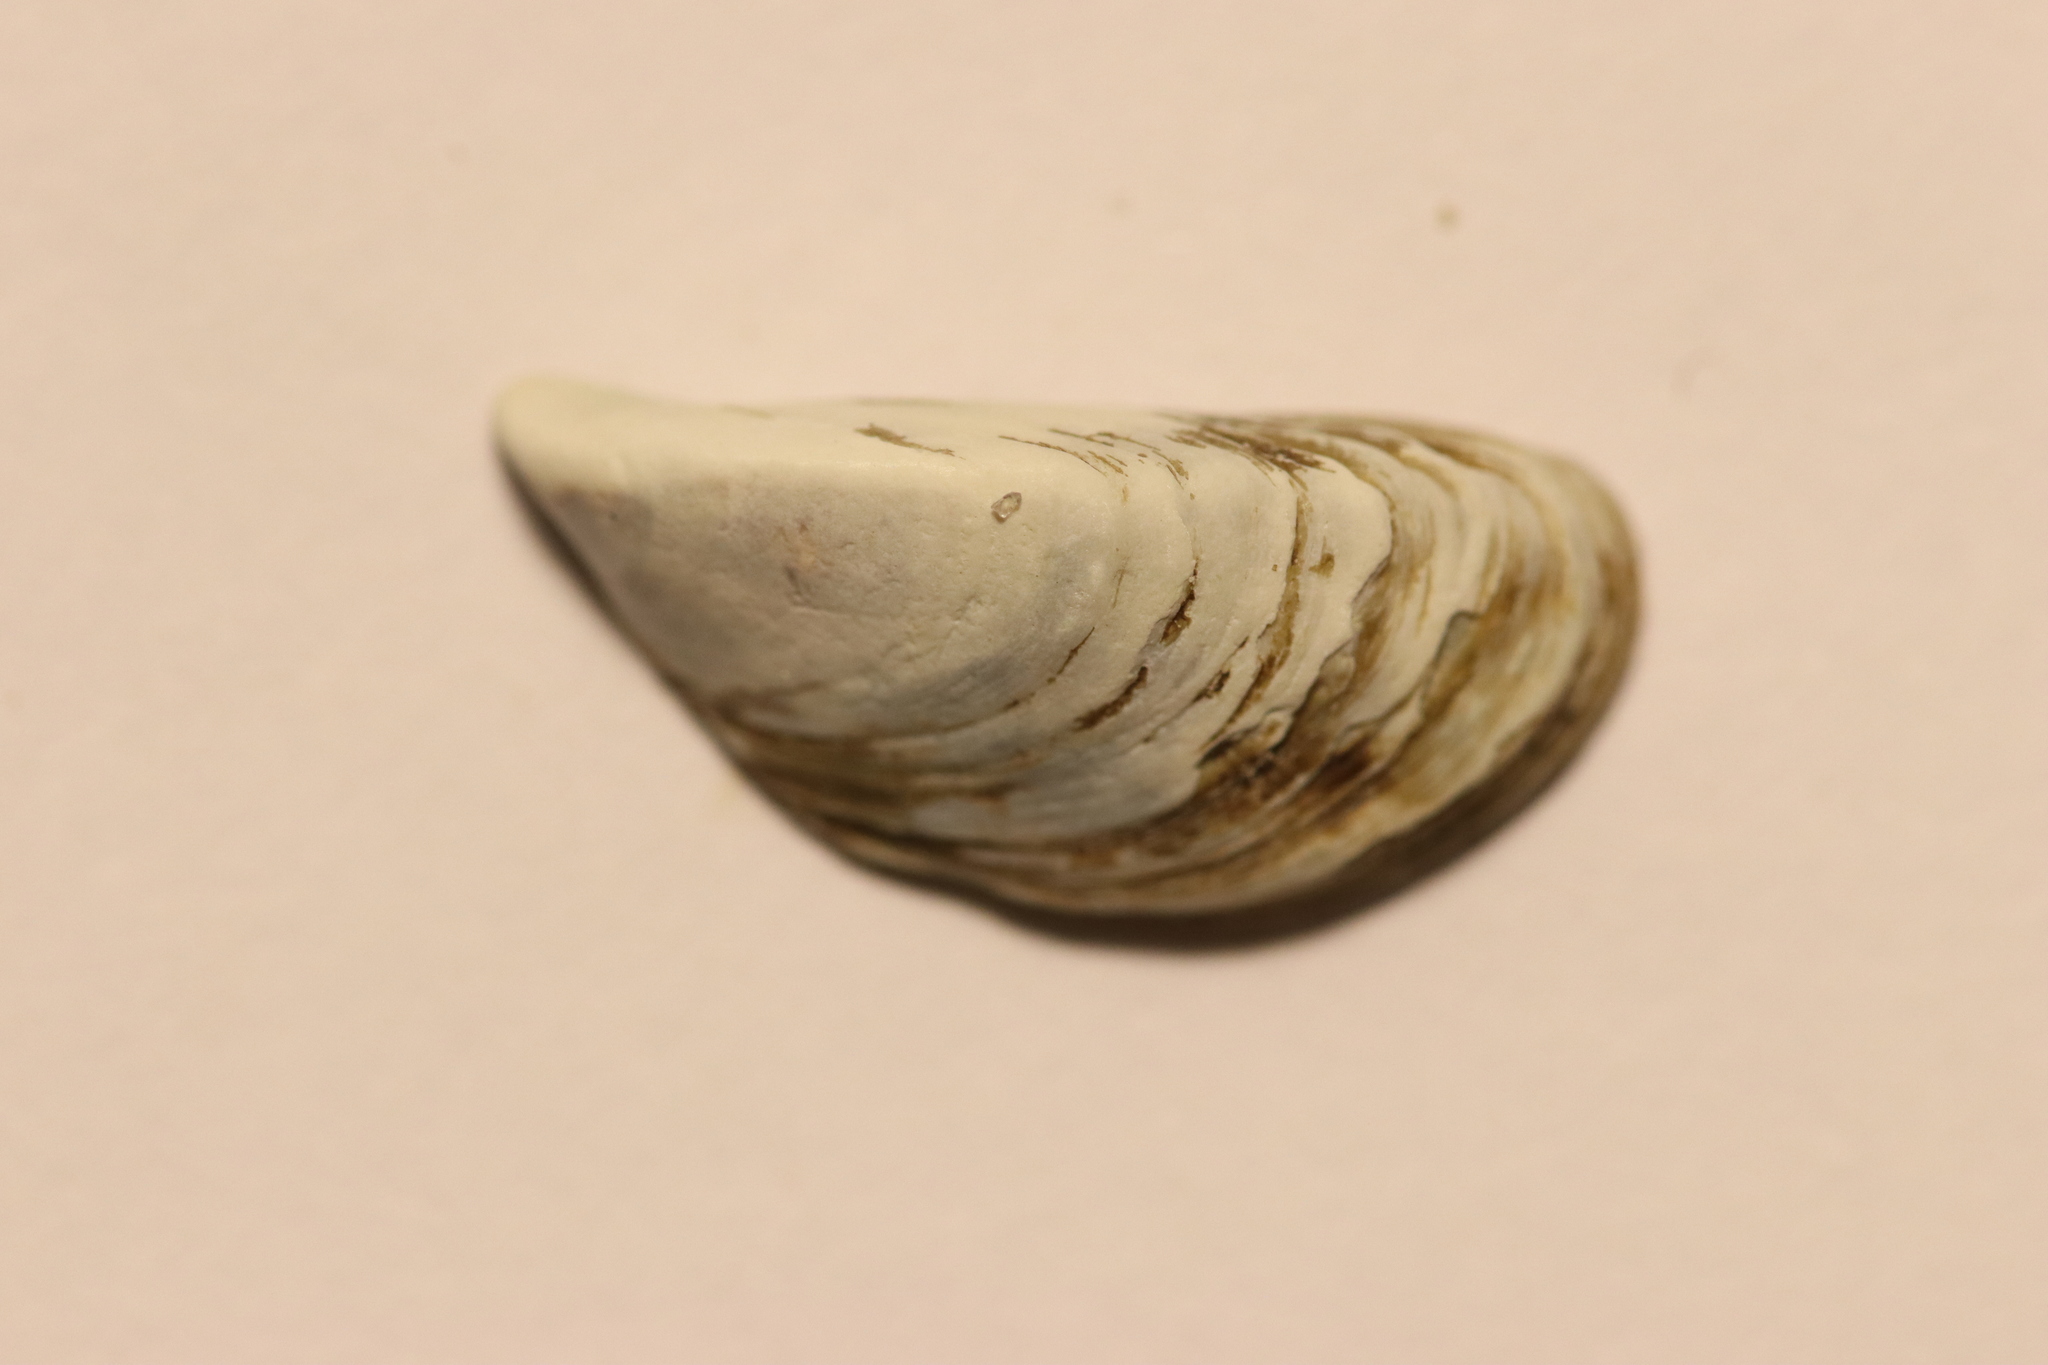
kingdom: Animalia
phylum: Mollusca
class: Bivalvia
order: Myida
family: Dreissenidae
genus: Dreissena
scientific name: Dreissena polymorpha
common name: Zebra mussel
